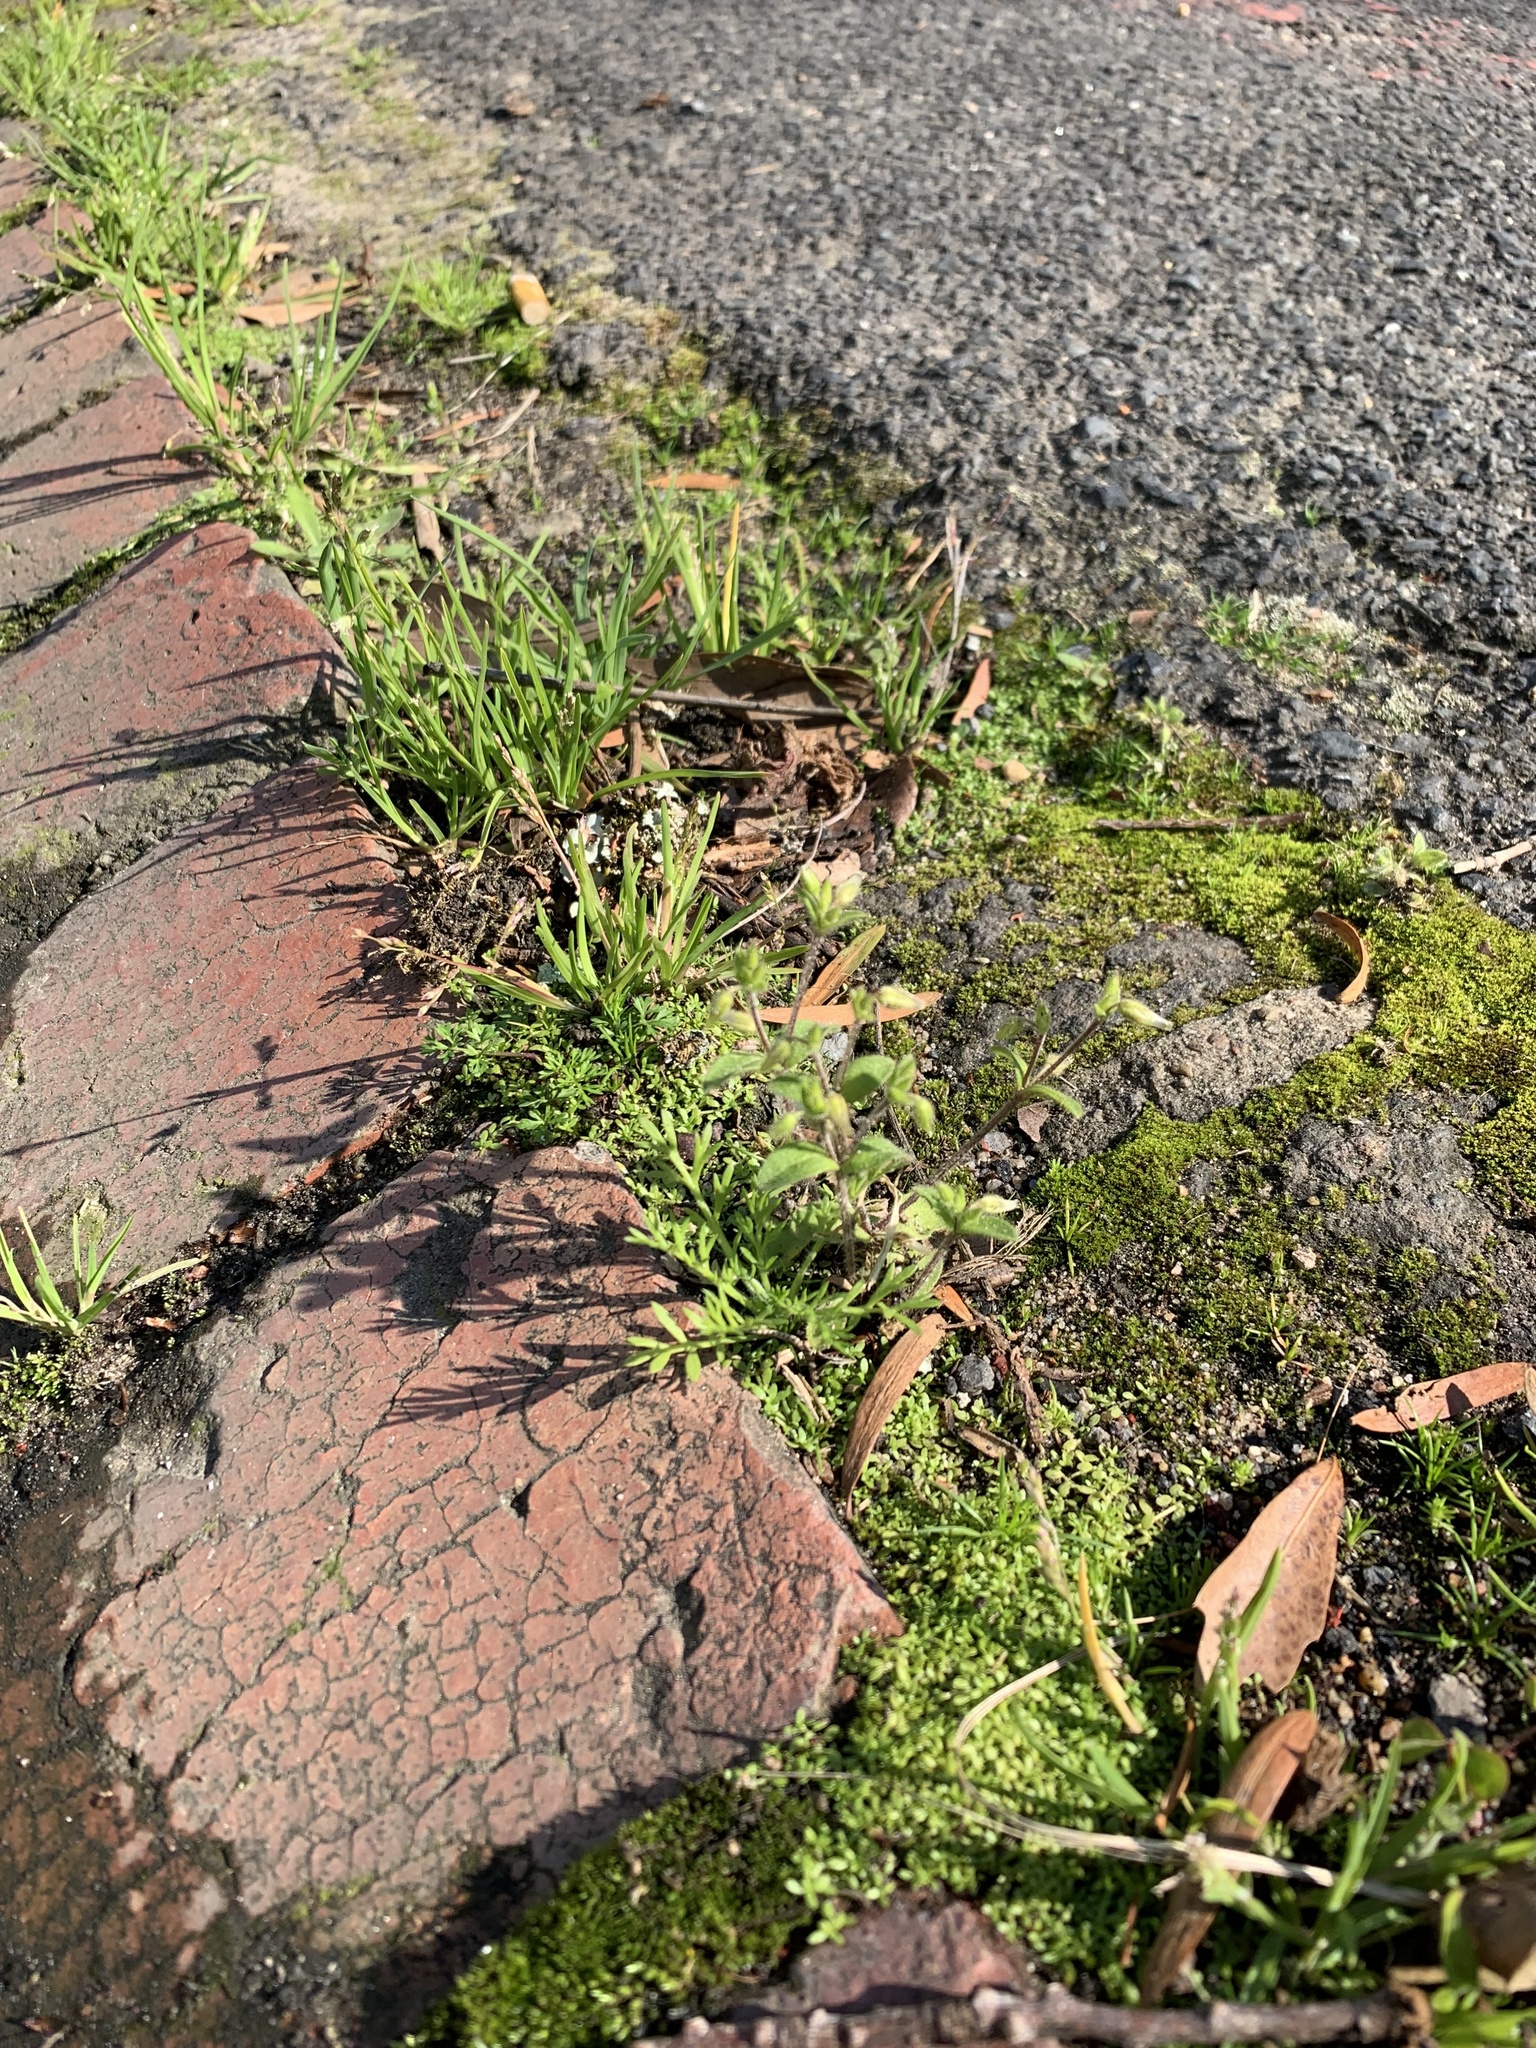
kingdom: Plantae
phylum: Tracheophyta
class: Magnoliopsida
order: Caryophyllales
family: Caryophyllaceae
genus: Cerastium
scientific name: Cerastium glomeratum
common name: Sticky chickweed
